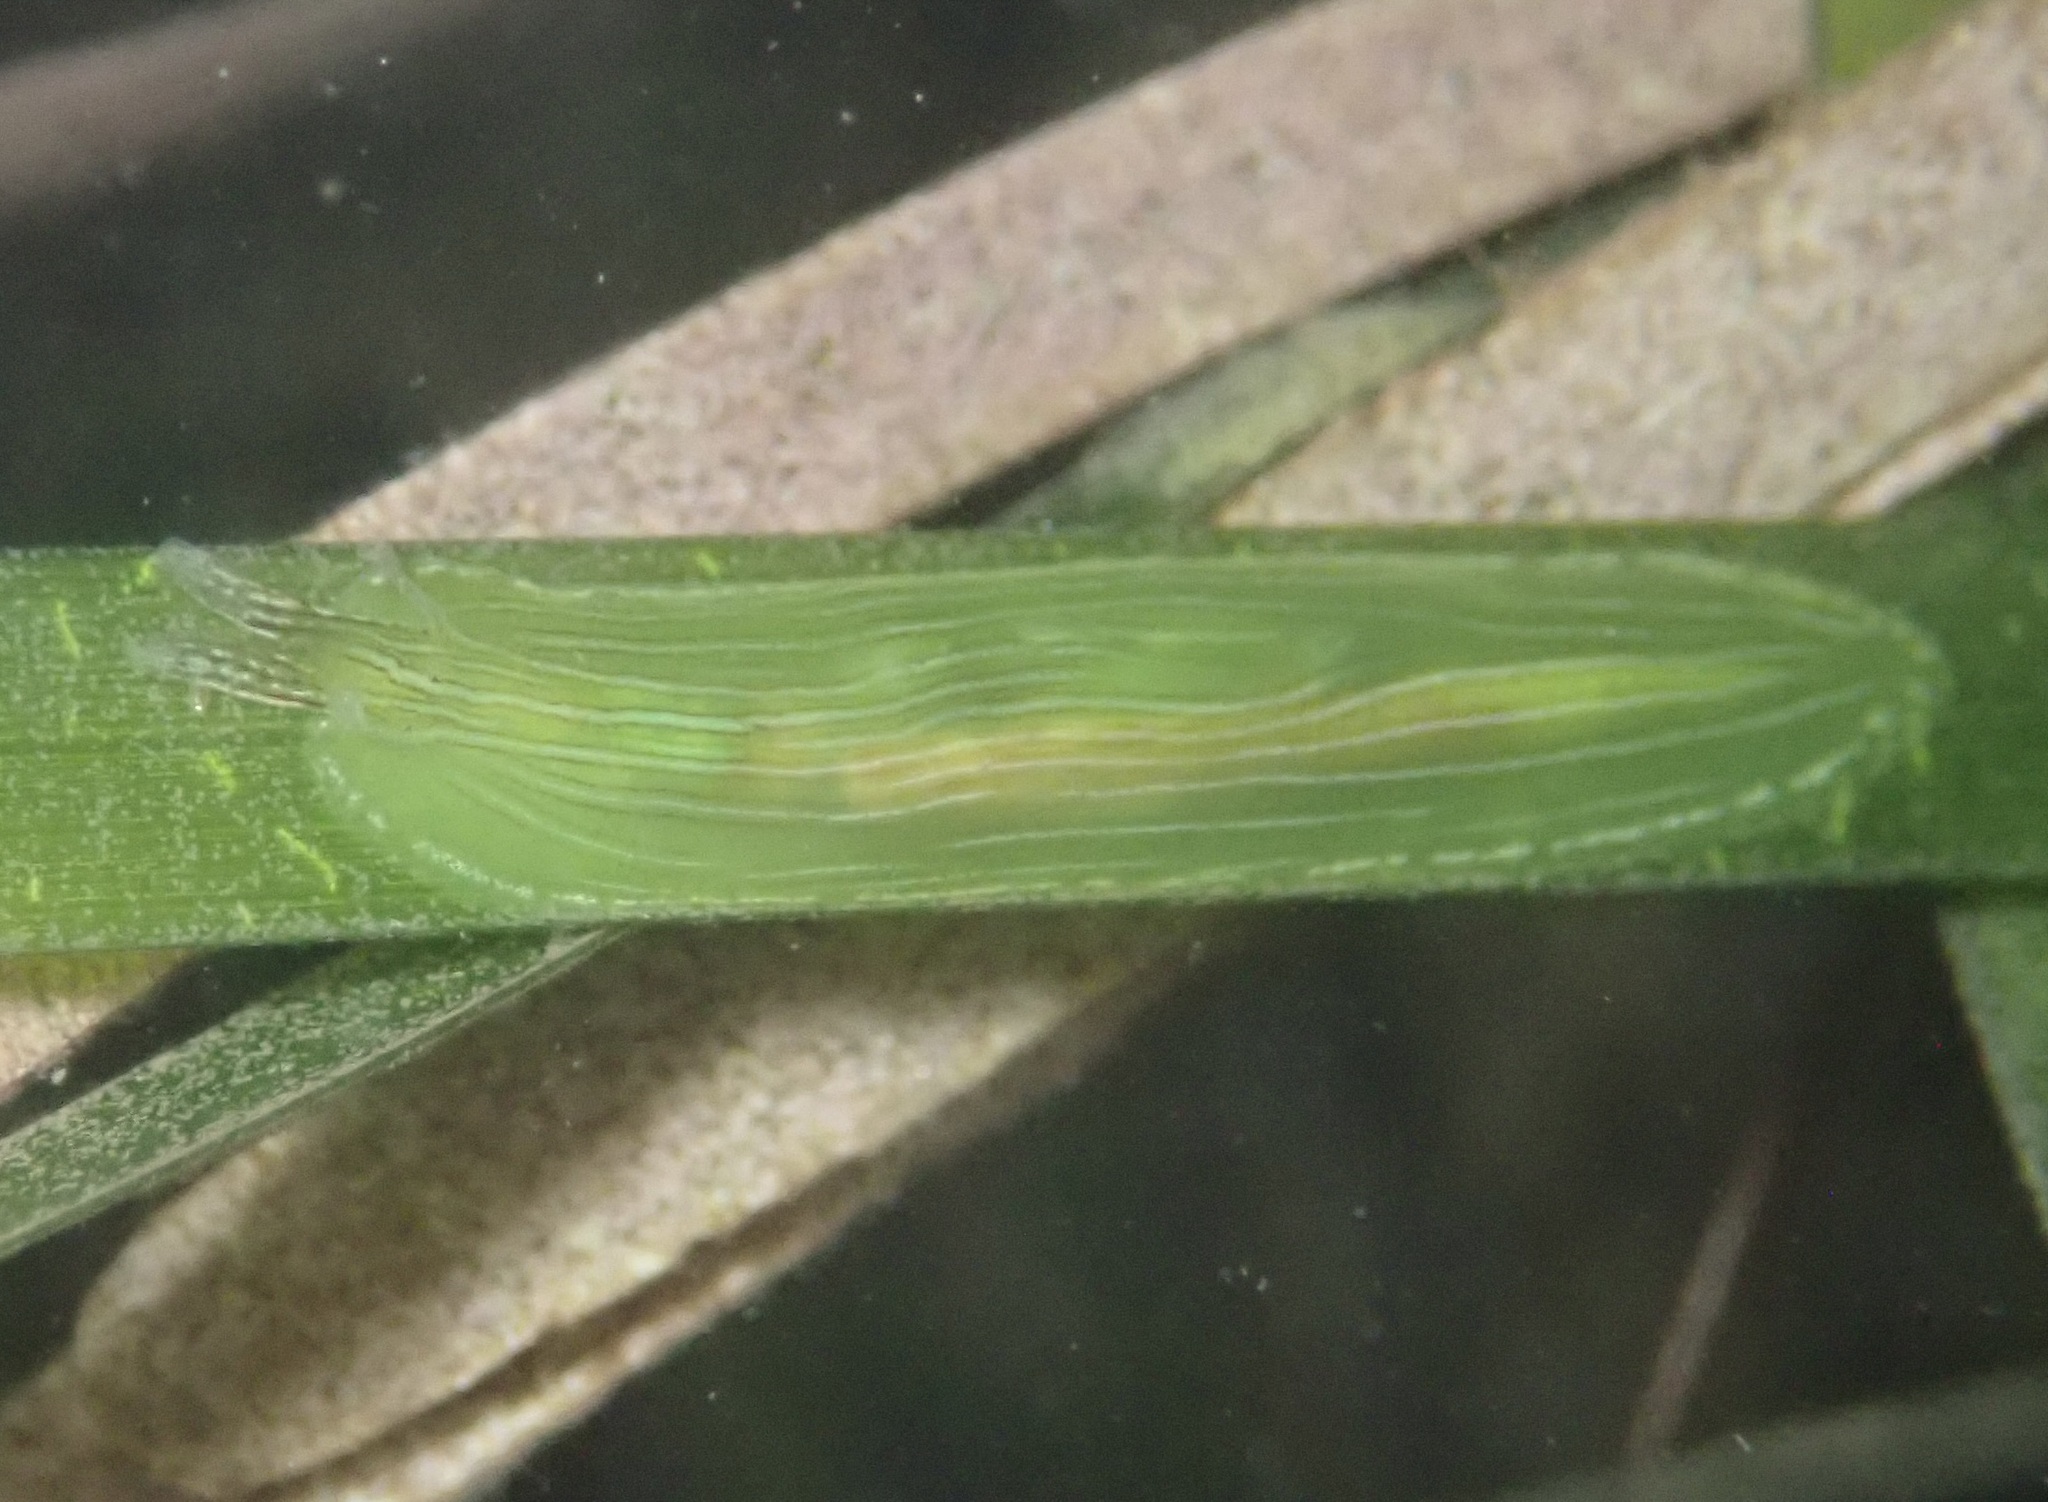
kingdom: Animalia
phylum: Mollusca
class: Gastropoda
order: Aplysiida
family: Aplysiidae
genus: Phyllaplysia
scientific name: Phyllaplysia taylori
